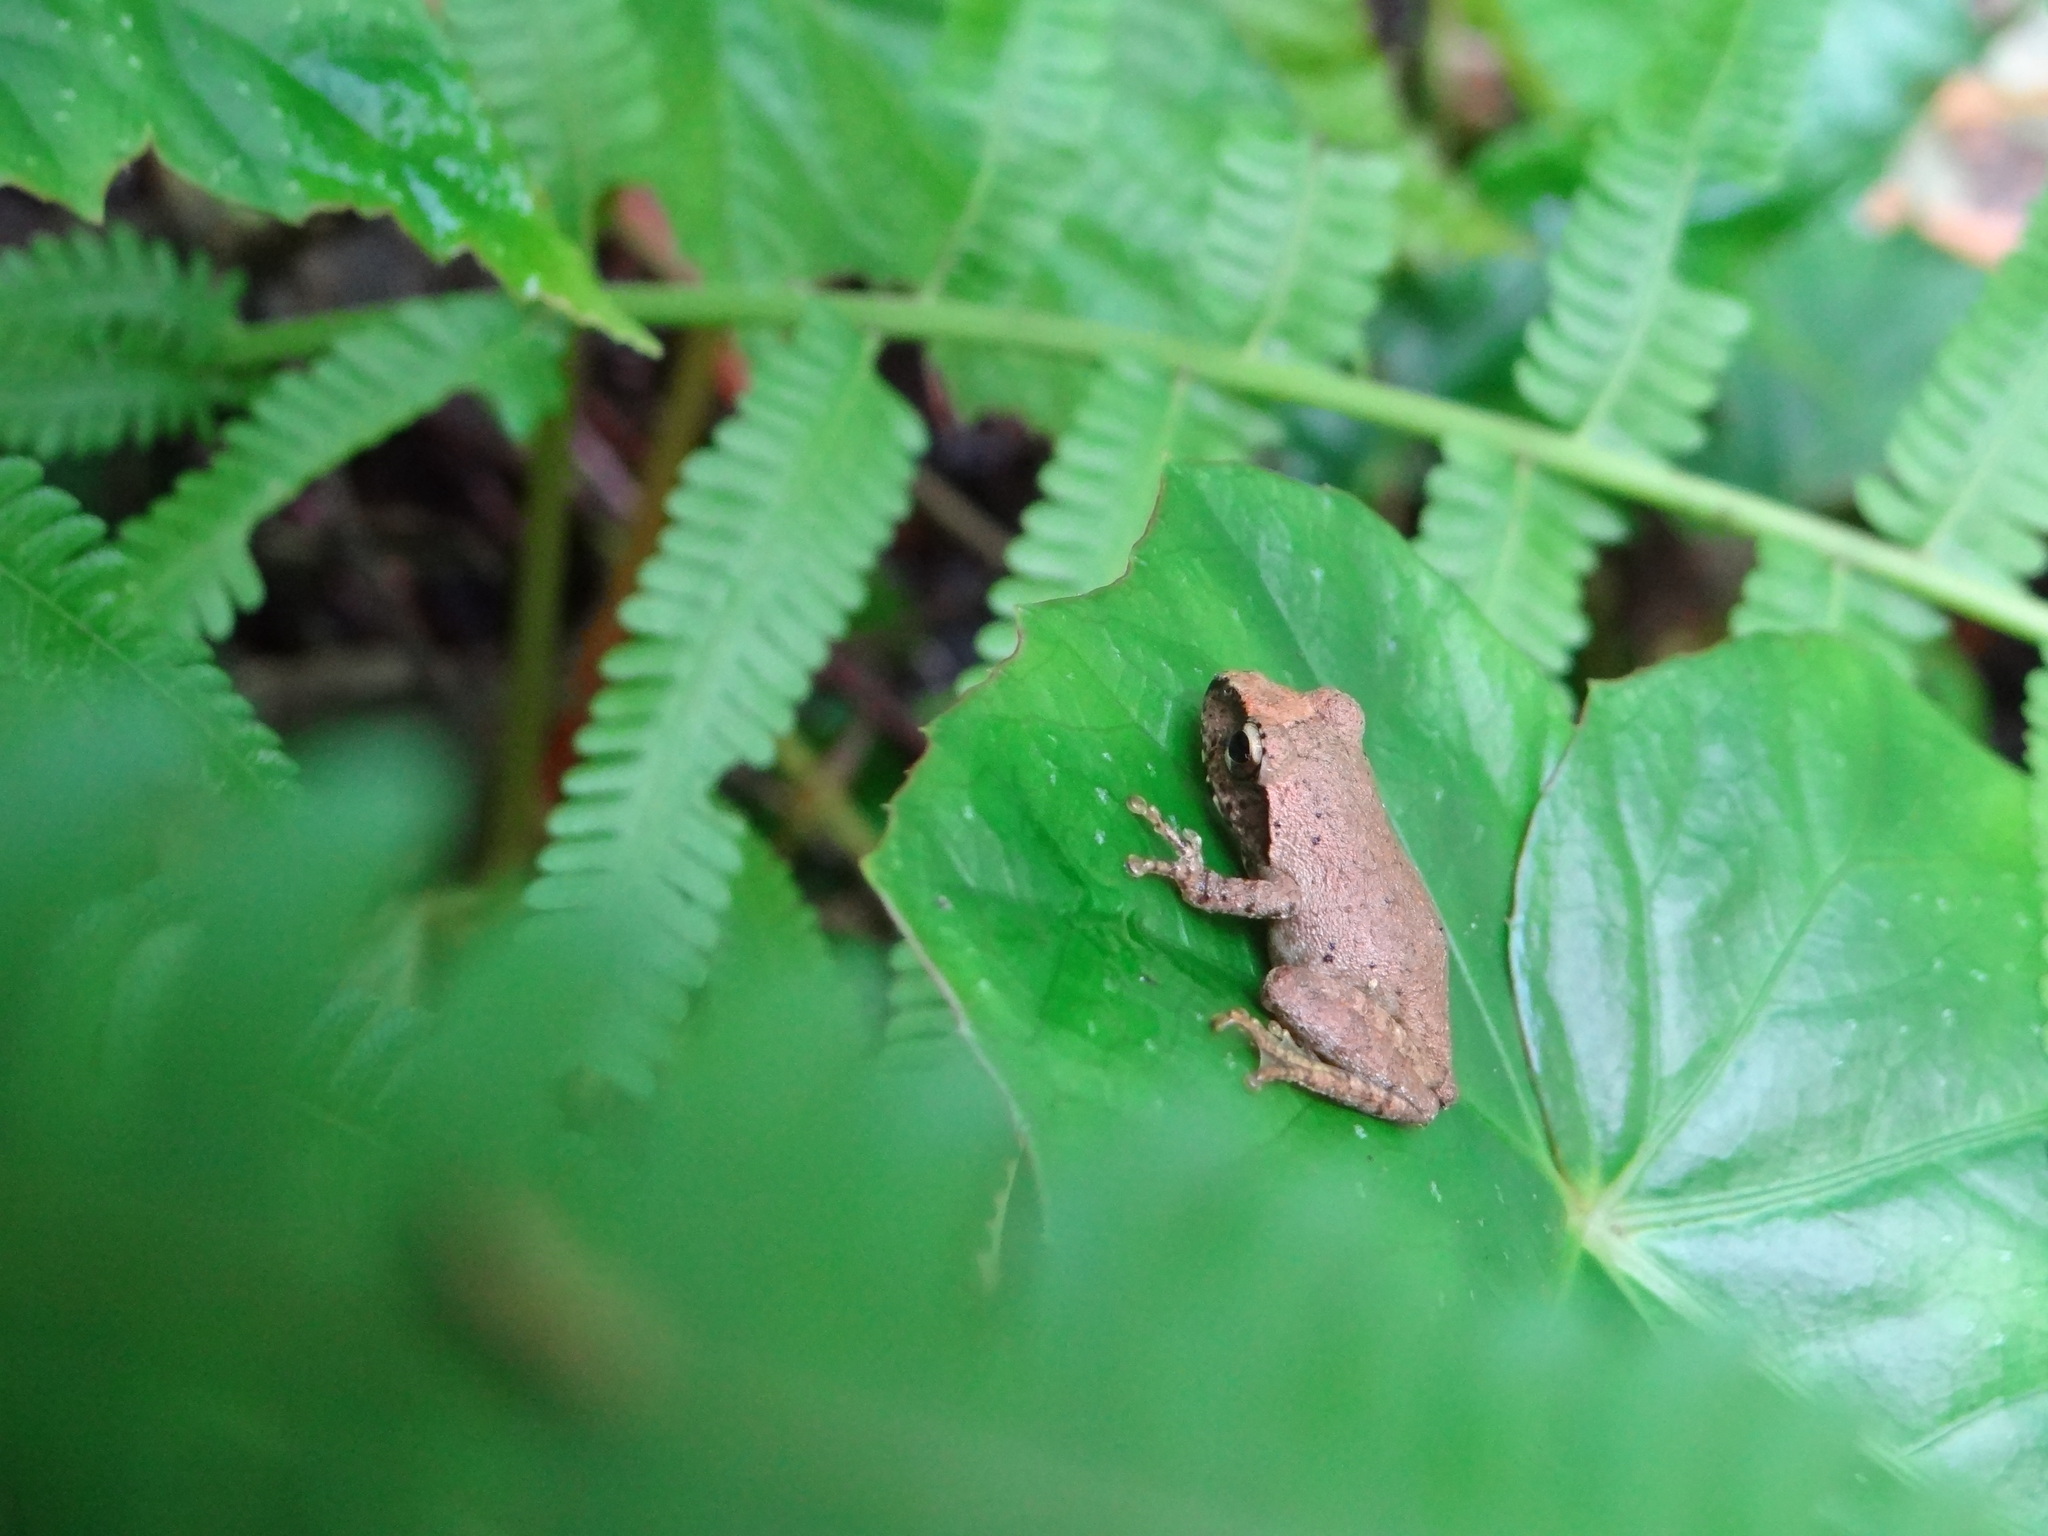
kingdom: Animalia
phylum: Chordata
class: Amphibia
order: Anura
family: Rhacophoridae
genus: Buergeria
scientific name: Buergeria robusta
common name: Brown treefrog
